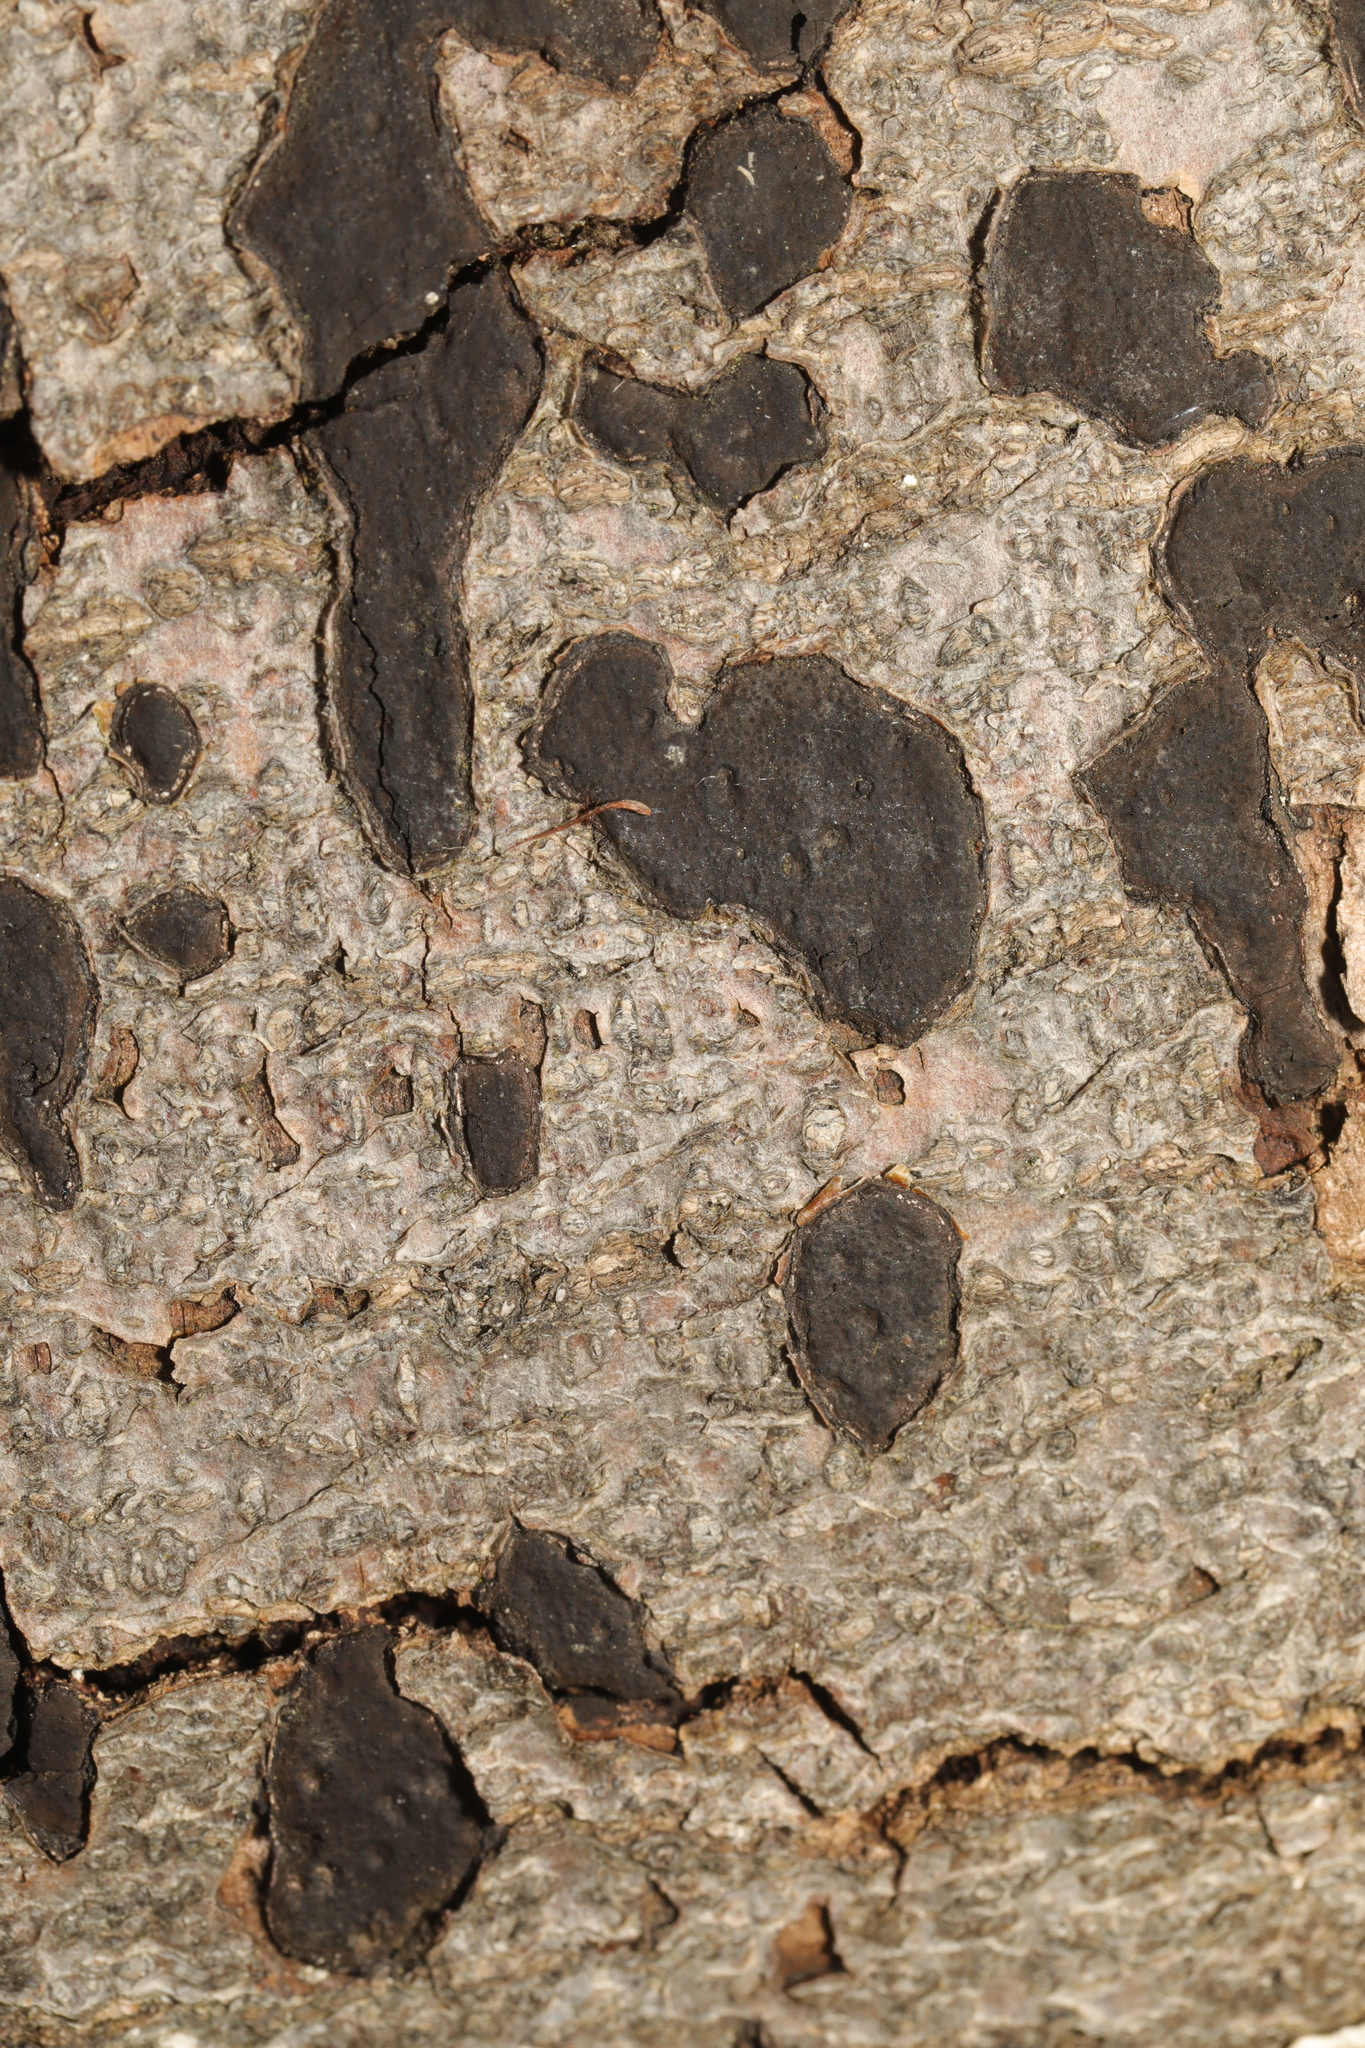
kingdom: Fungi
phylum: Ascomycota
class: Sordariomycetes
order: Xylariales
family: Graphostromataceae
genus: Biscogniauxia
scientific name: Biscogniauxia nummularia
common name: Beech tarcrust
